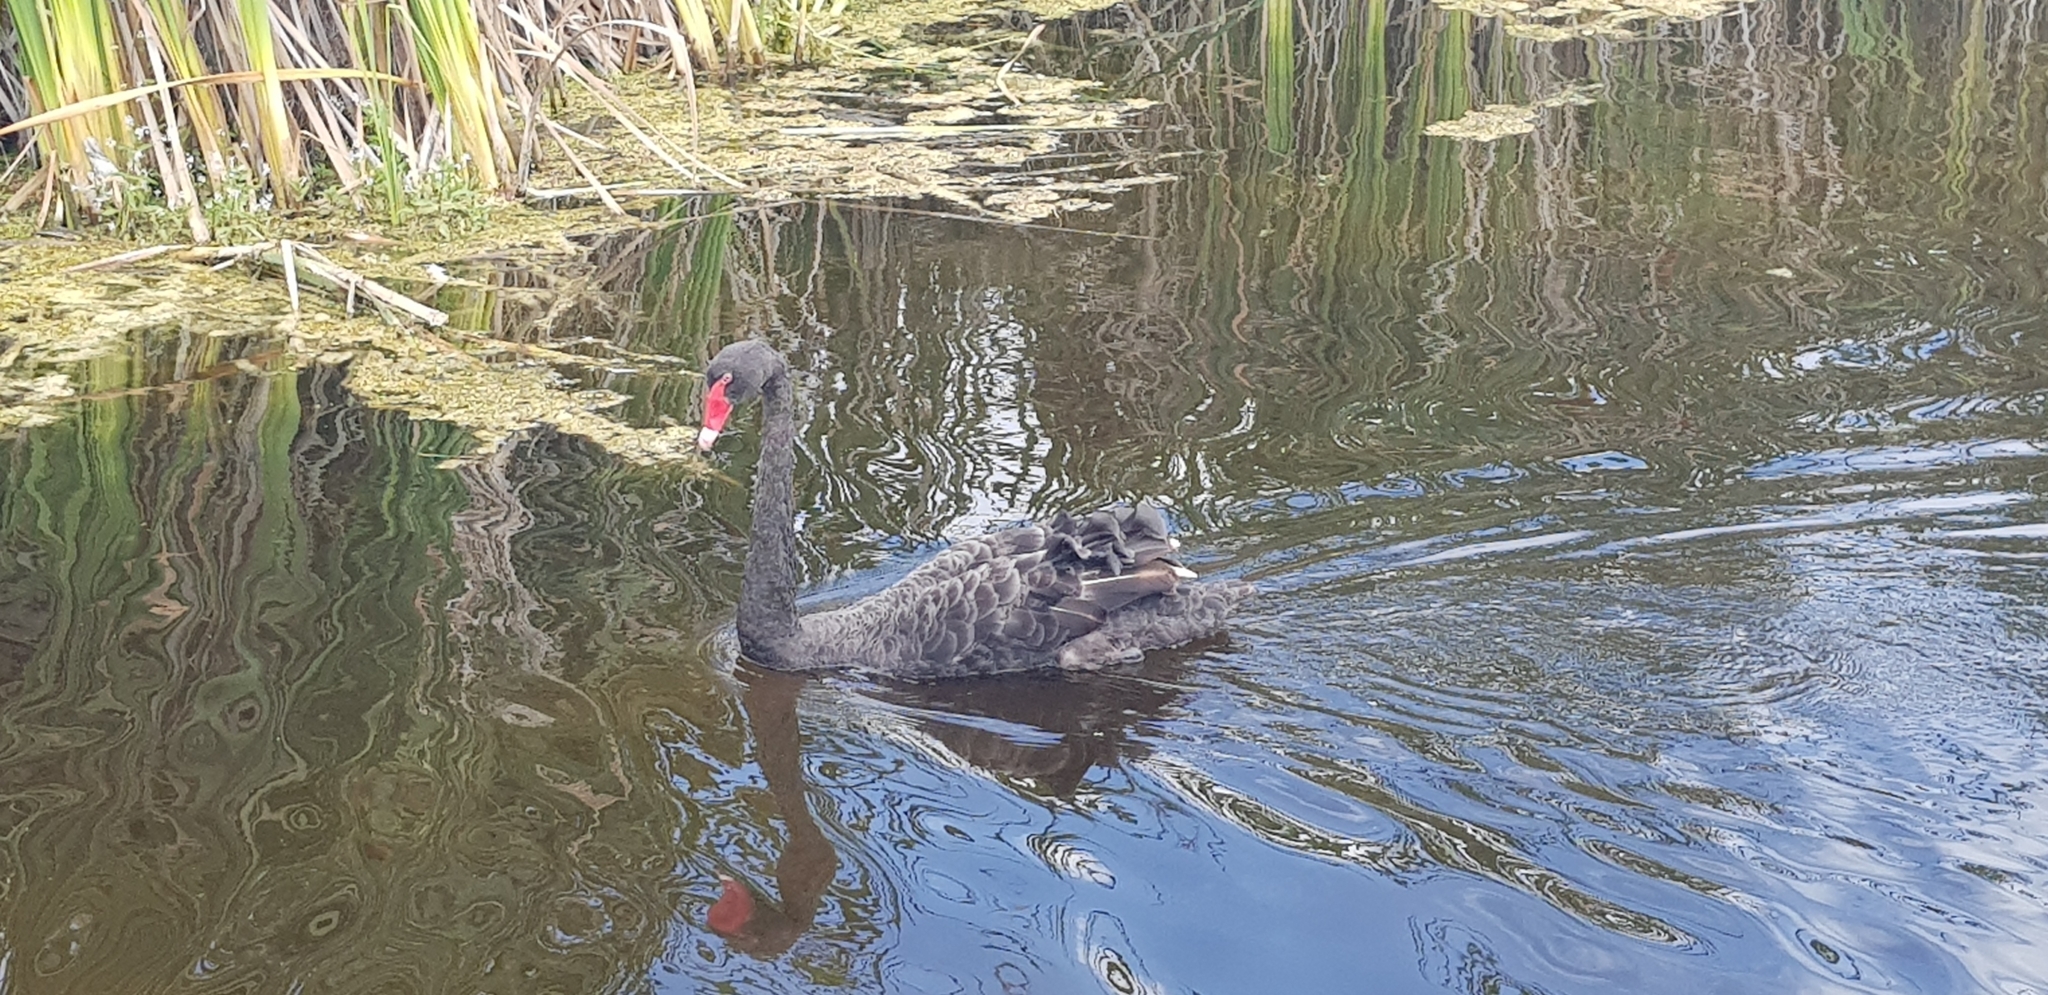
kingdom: Animalia
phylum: Chordata
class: Aves
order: Anseriformes
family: Anatidae
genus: Cygnus
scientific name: Cygnus atratus
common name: Black swan
